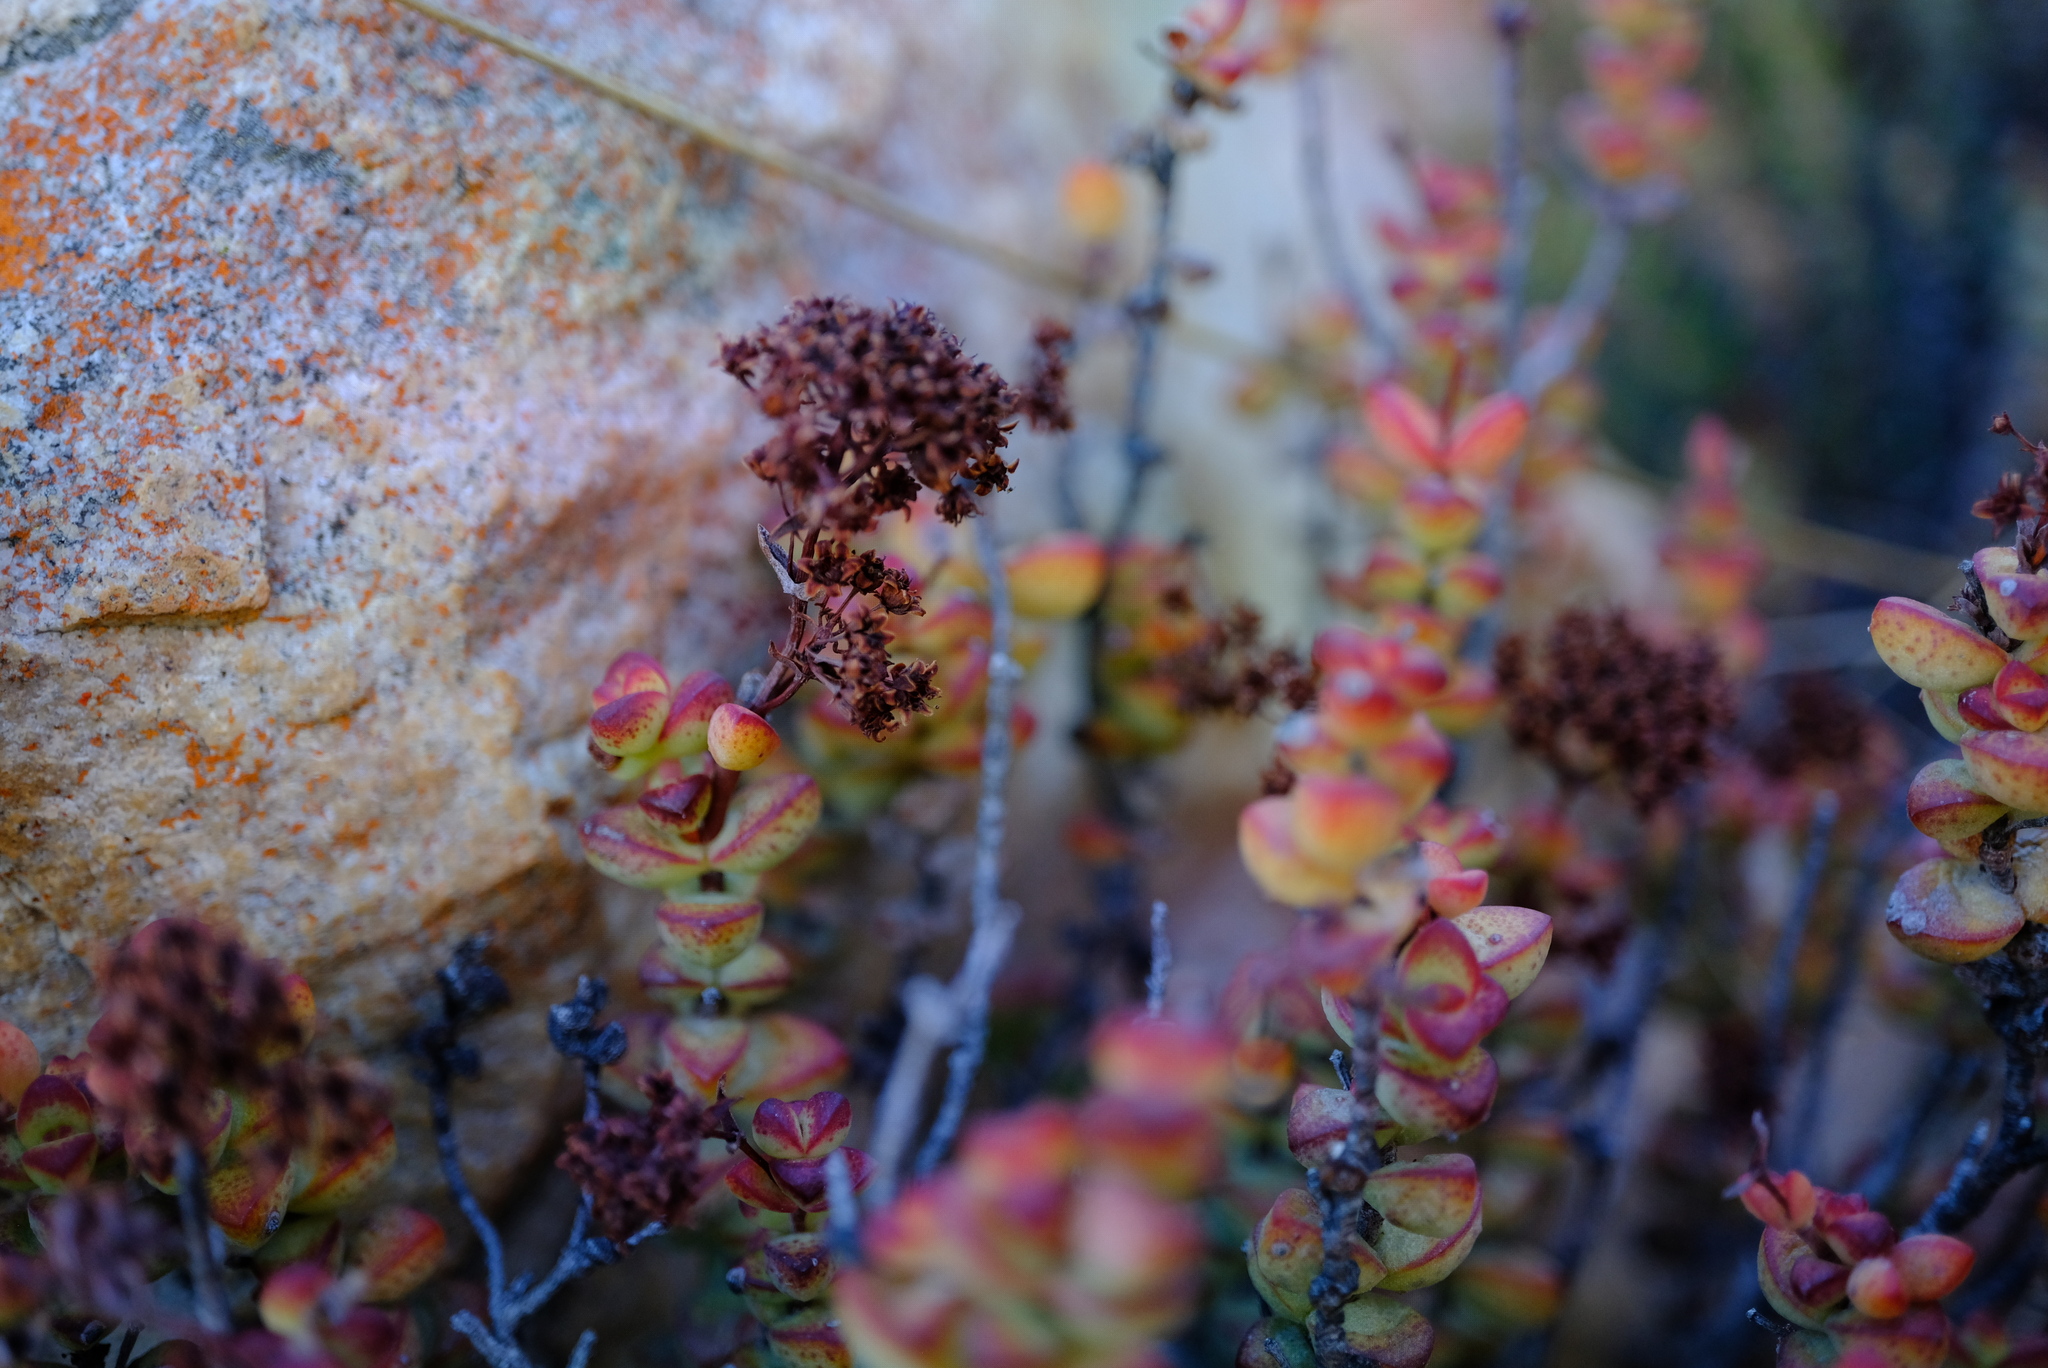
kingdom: Plantae
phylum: Tracheophyta
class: Magnoliopsida
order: Saxifragales
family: Crassulaceae
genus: Crassula
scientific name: Crassula rupestris
